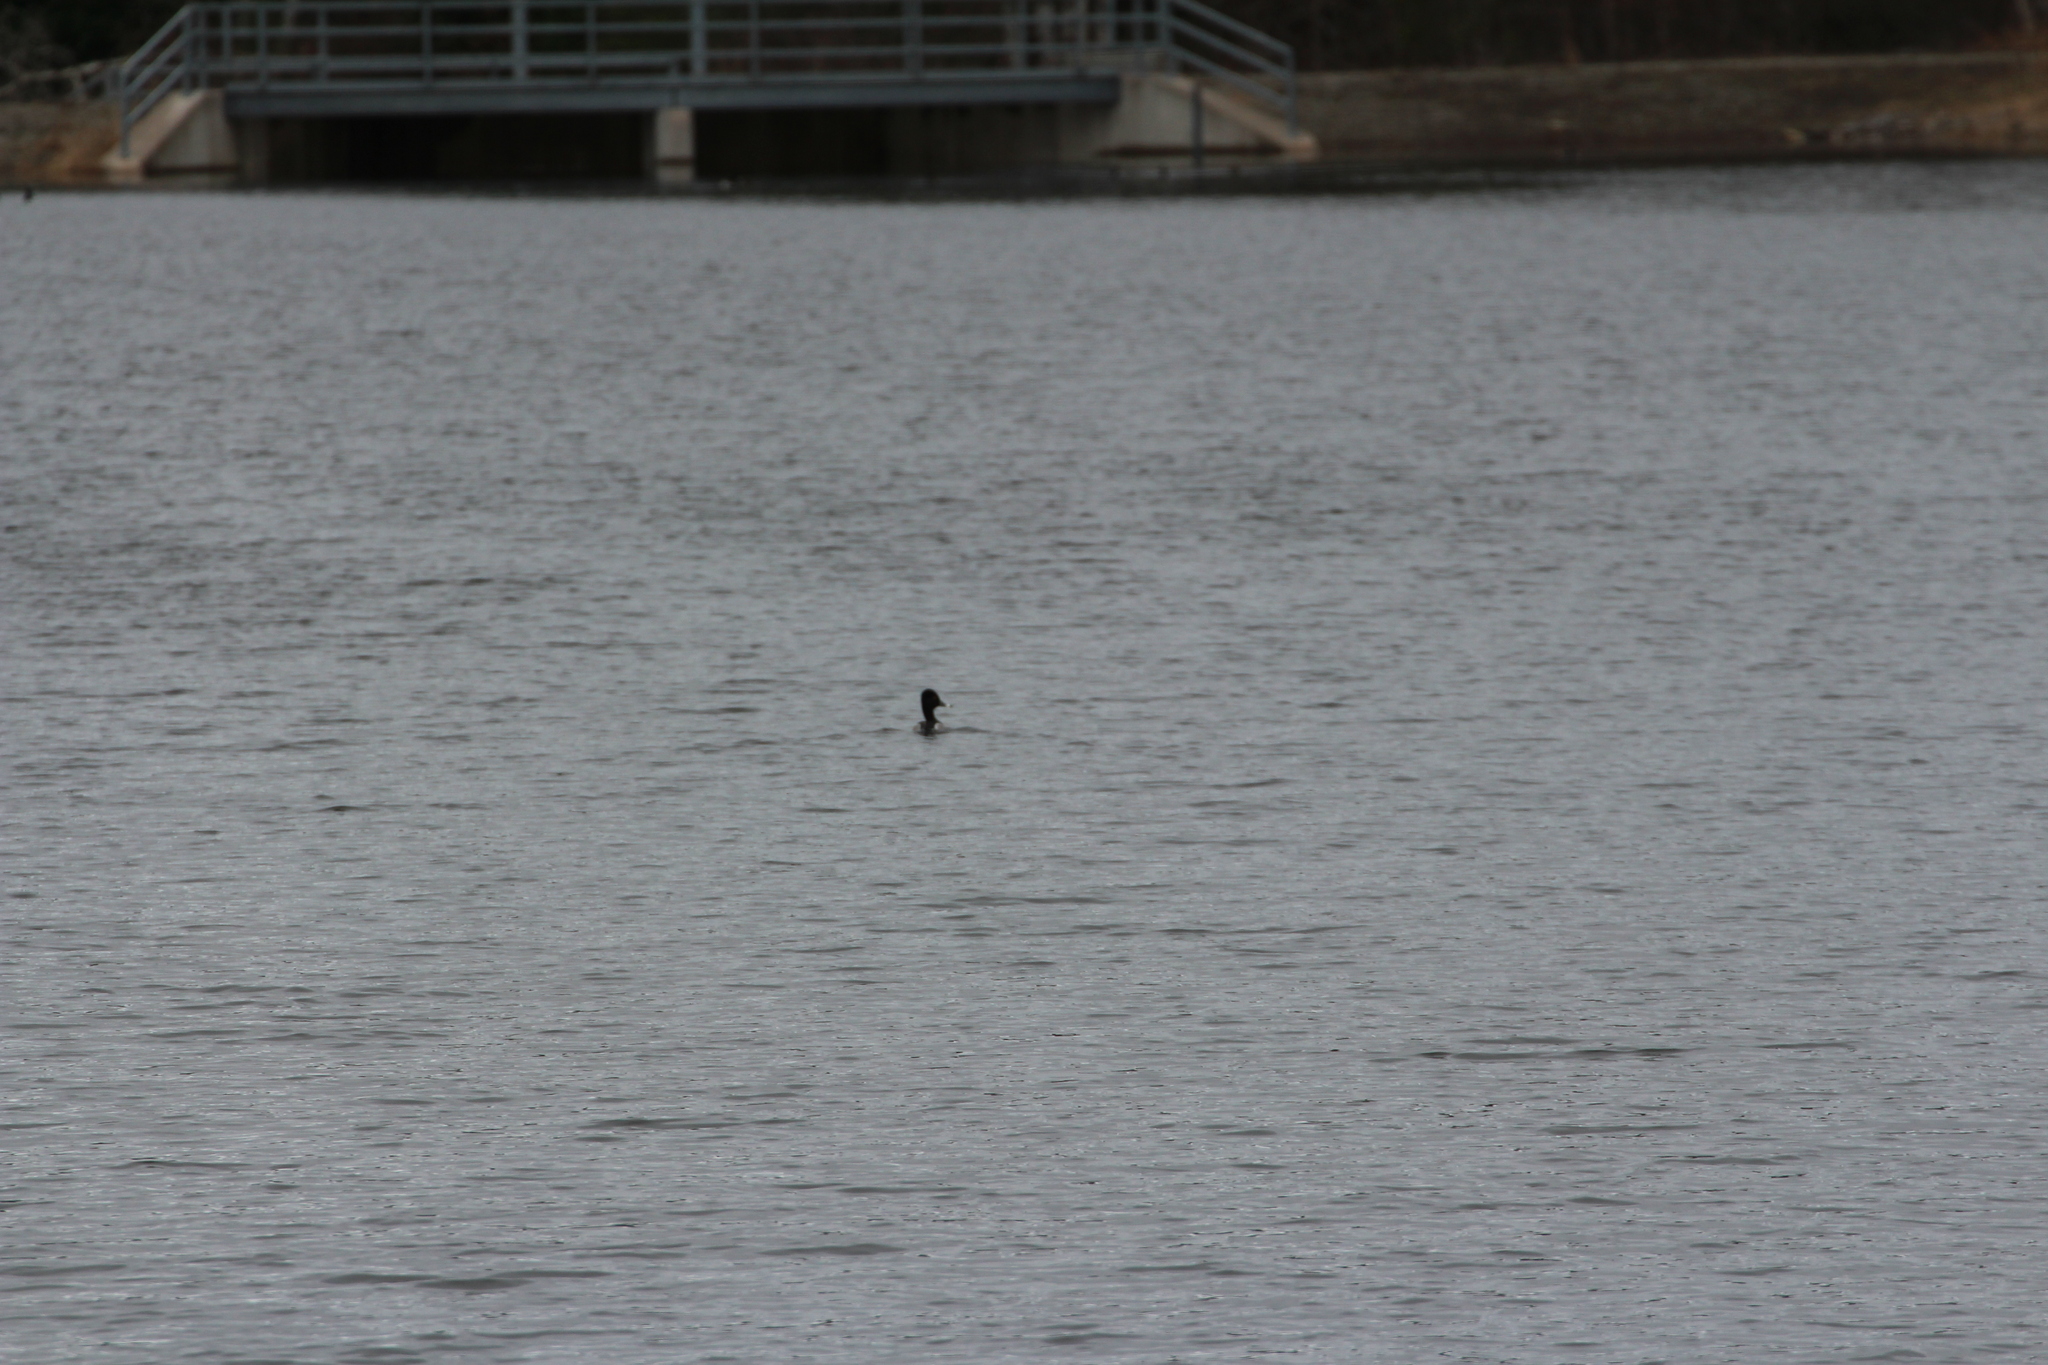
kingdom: Animalia
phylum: Chordata
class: Aves
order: Anseriformes
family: Anatidae
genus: Aythya
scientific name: Aythya collaris
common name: Ring-necked duck
